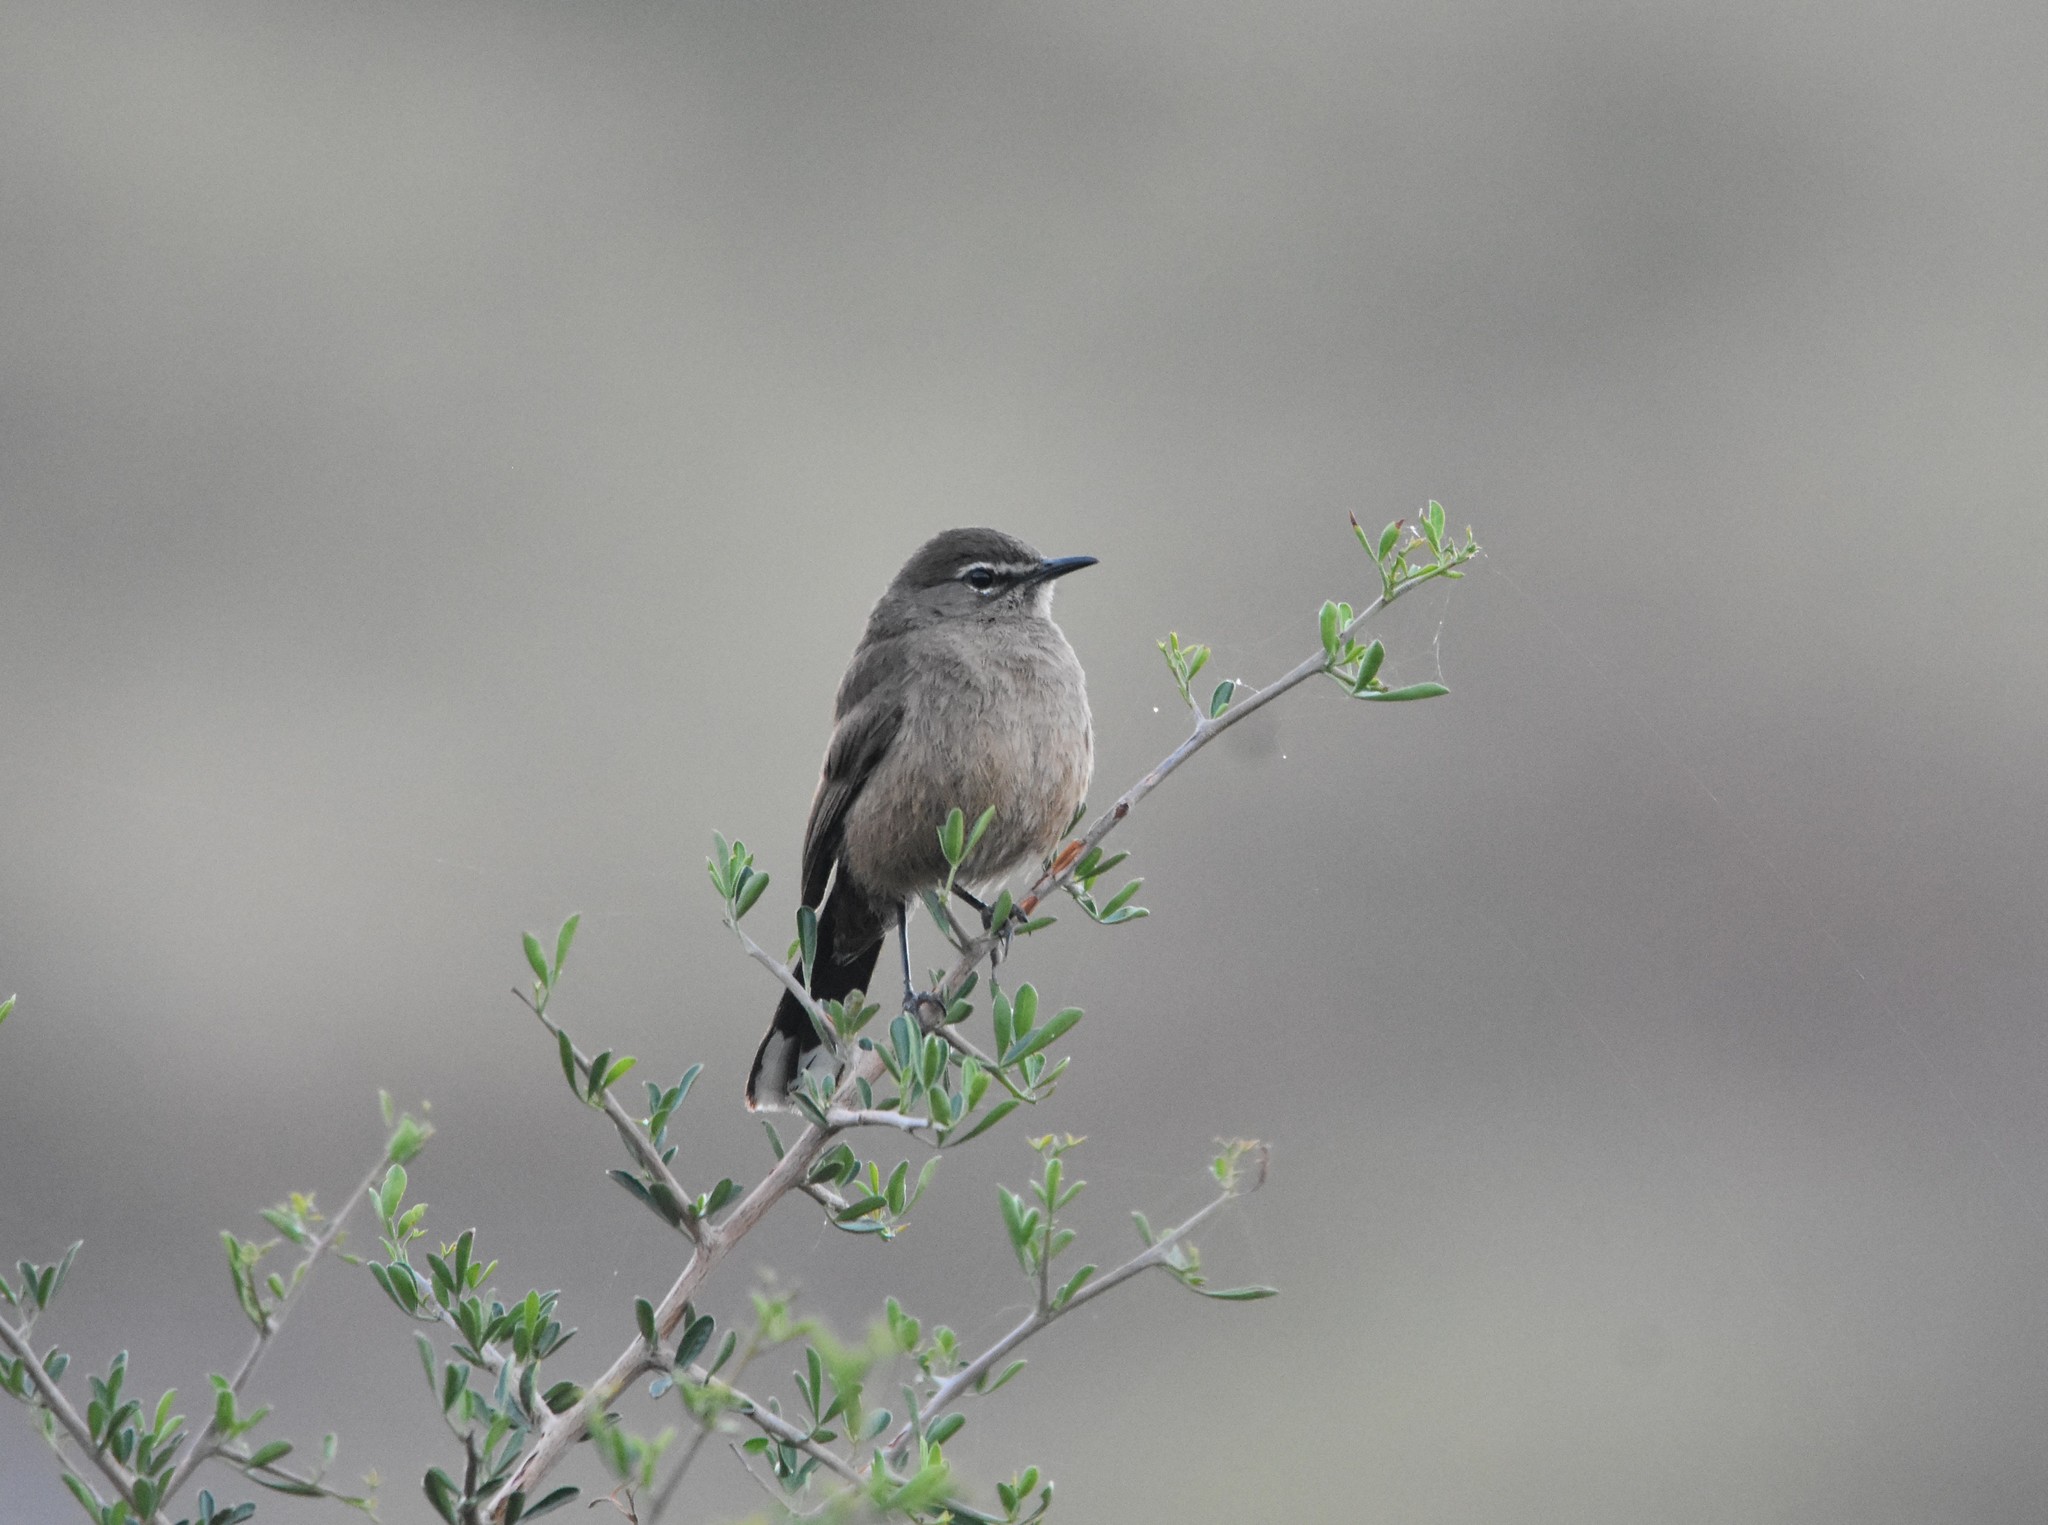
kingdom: Animalia
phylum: Chordata
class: Aves
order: Passeriformes
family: Muscicapidae
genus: Erythropygia
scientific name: Erythropygia coryphoeus
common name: Karoo scrub robin
